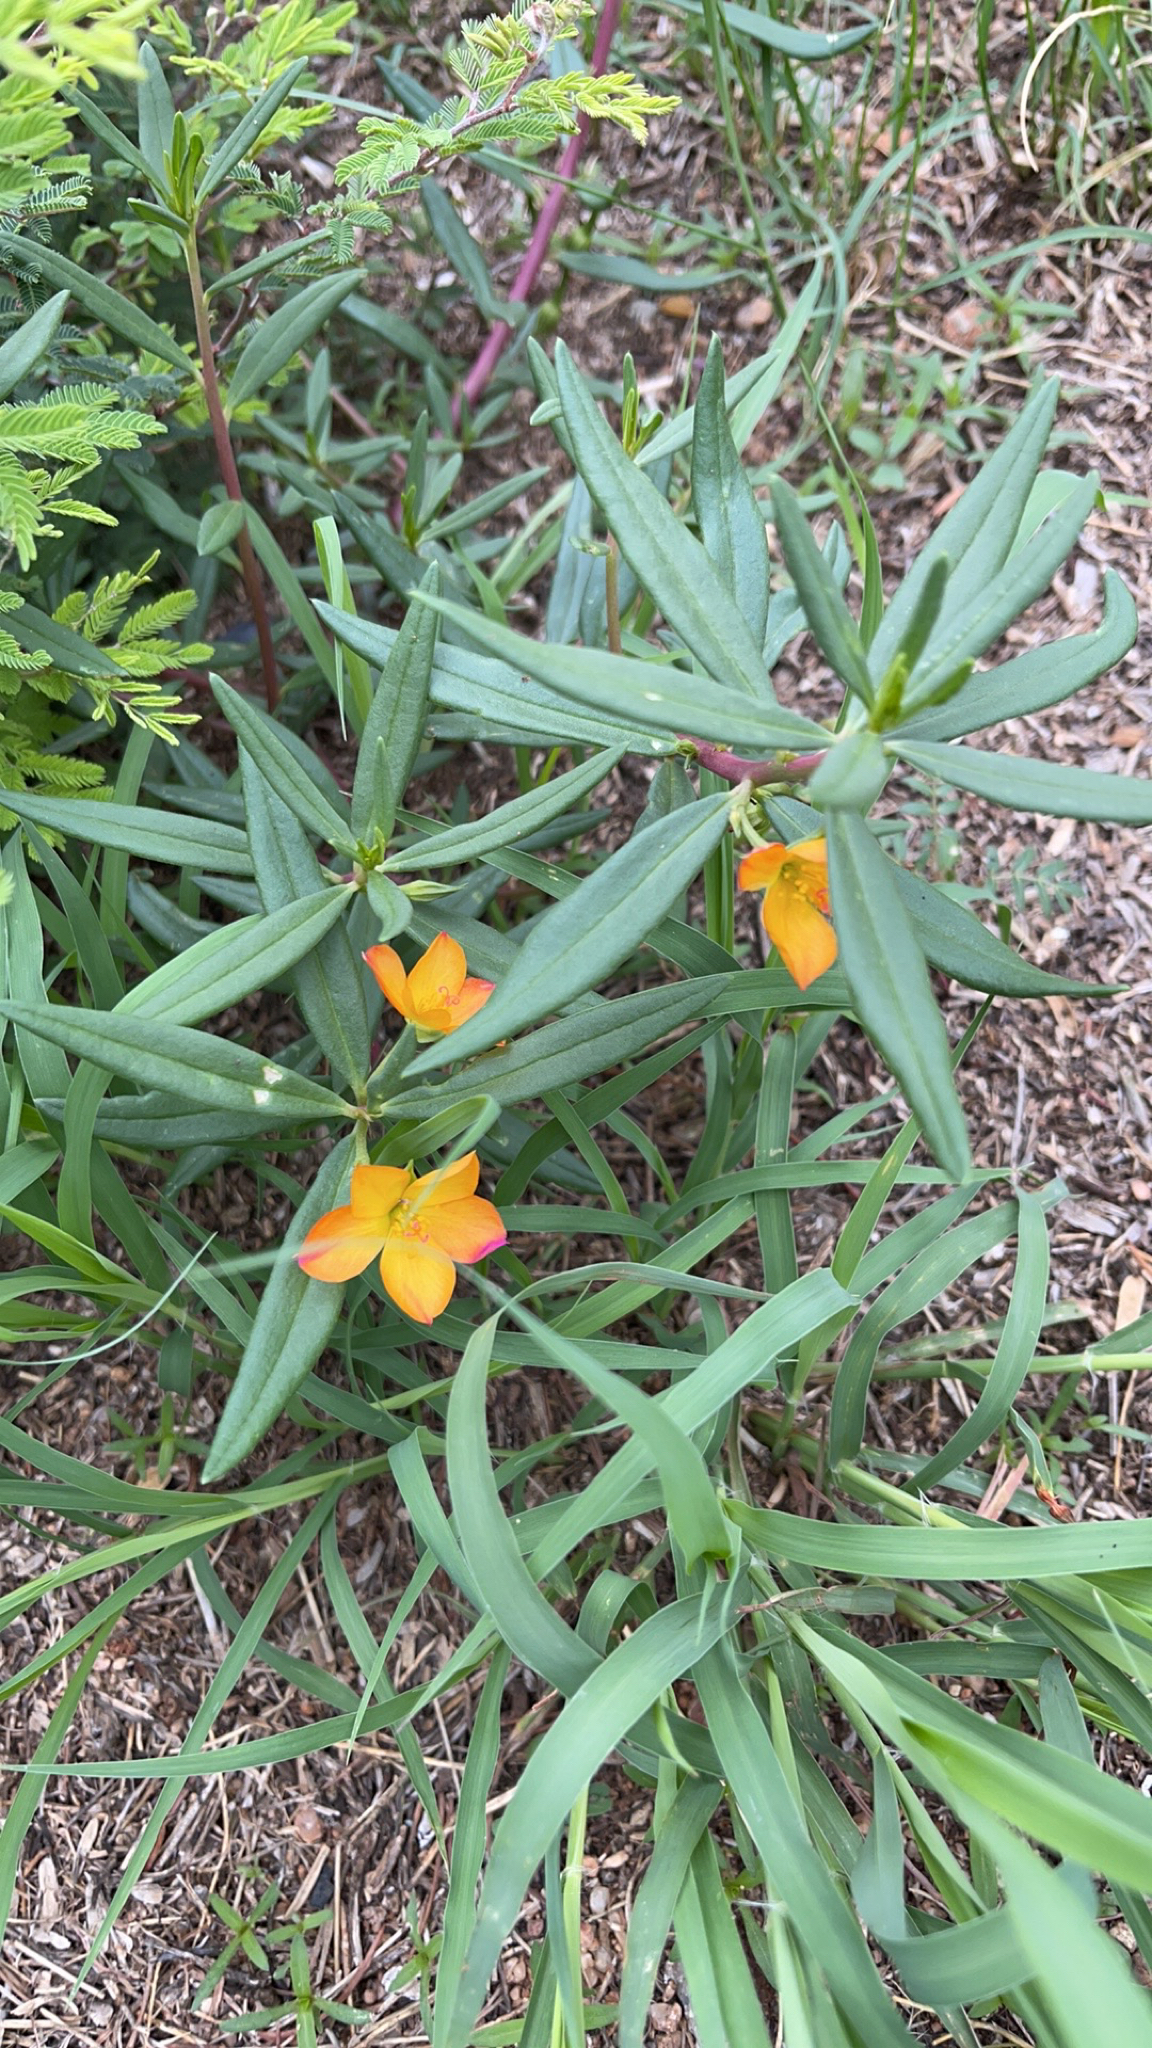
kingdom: Plantae
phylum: Tracheophyta
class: Magnoliopsida
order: Caryophyllales
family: Montiaceae
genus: Phemeranthus
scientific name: Phemeranthus aurantiacus
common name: Orange fameflower
